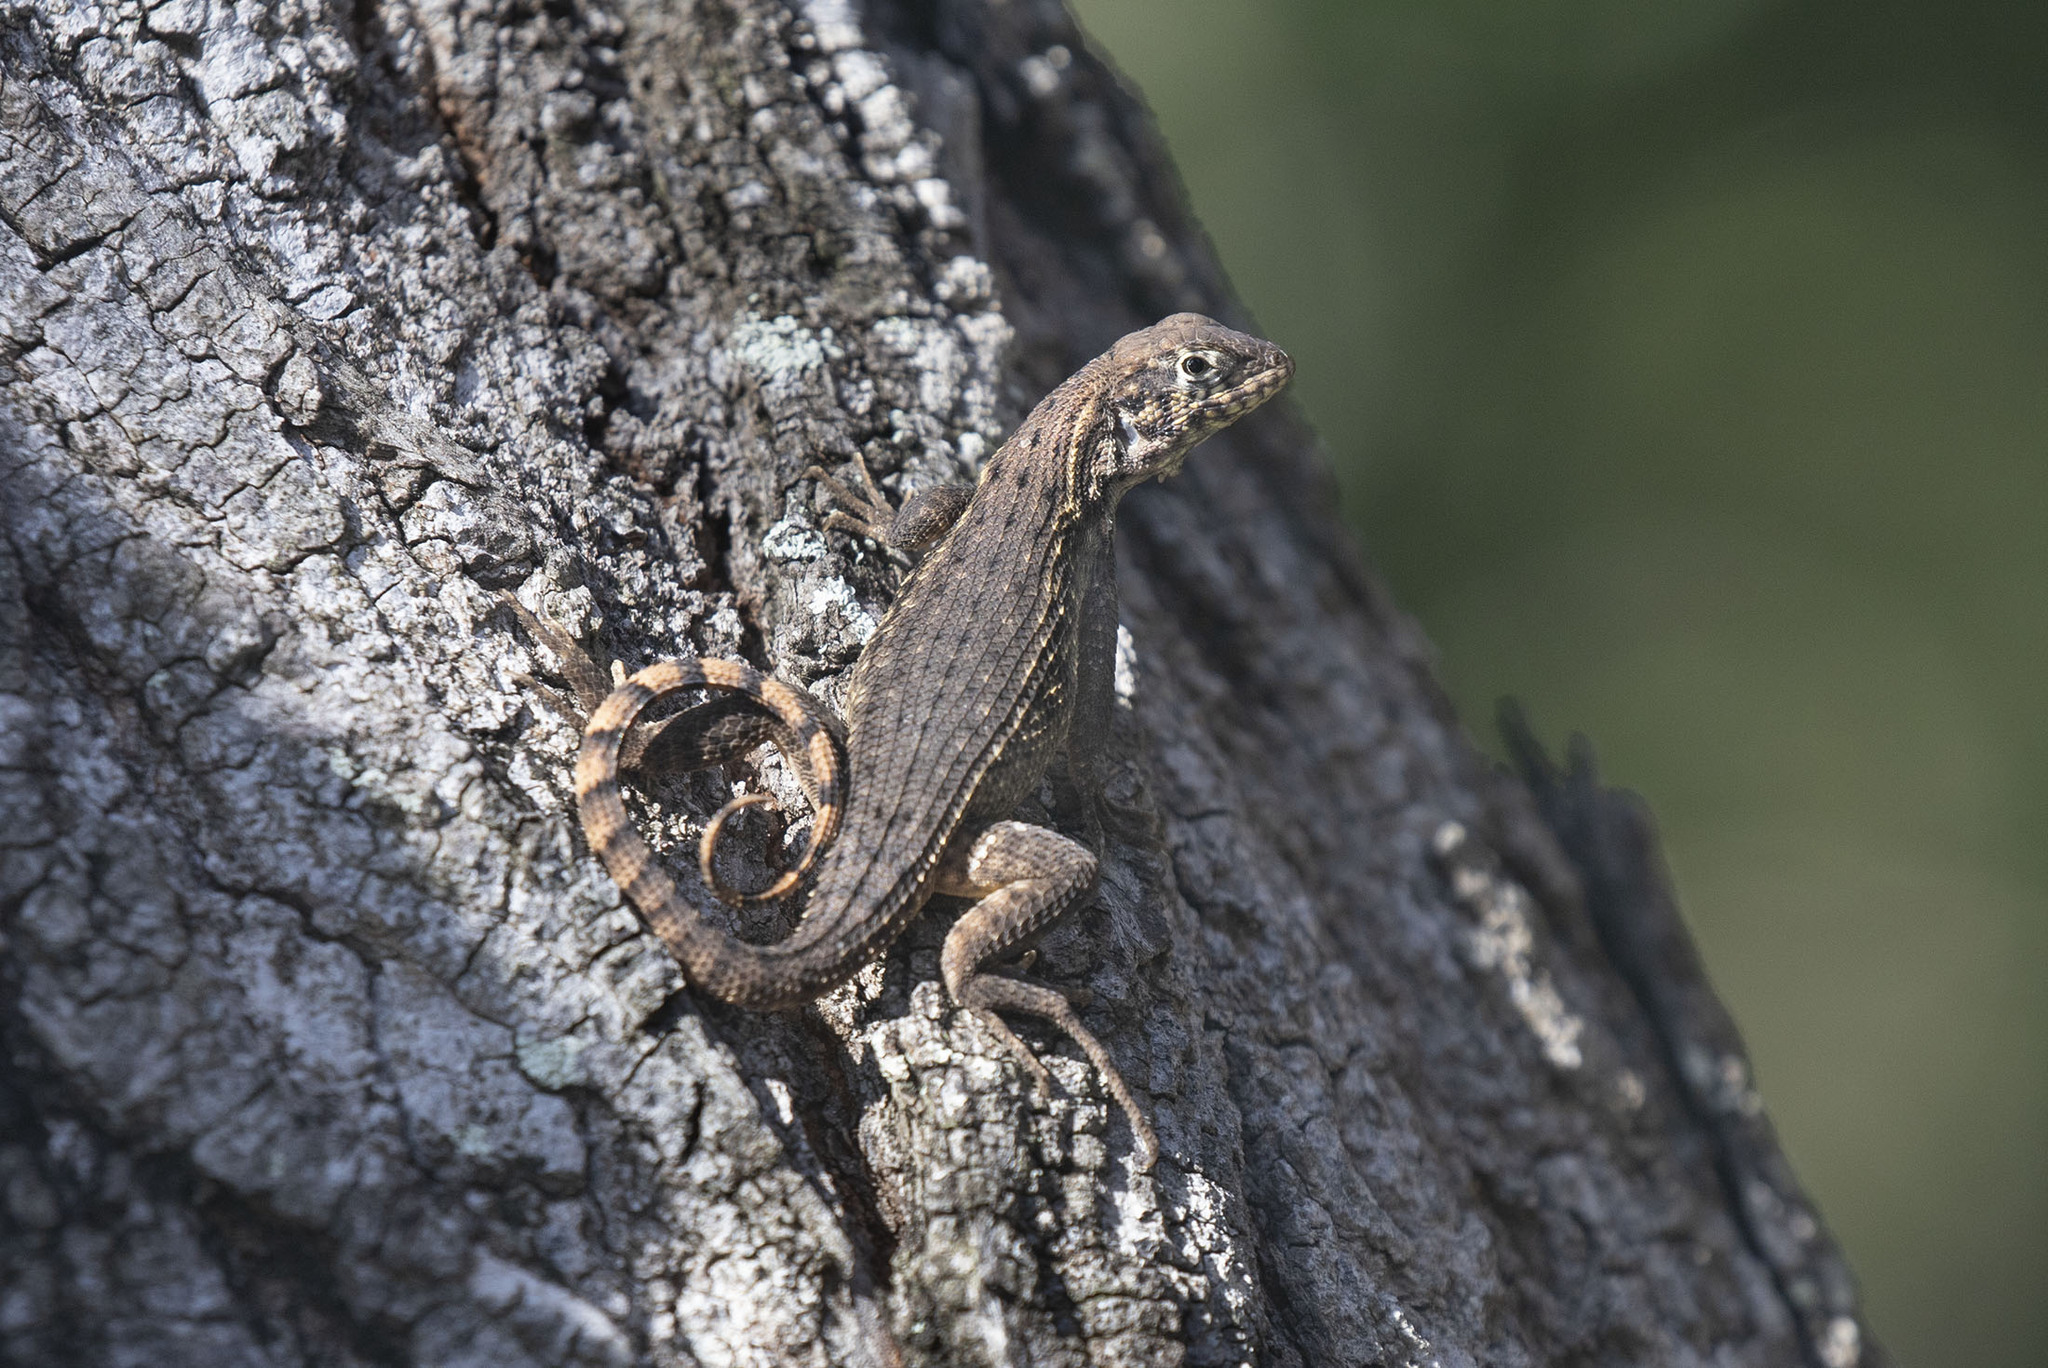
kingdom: Animalia
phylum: Chordata
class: Squamata
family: Leiocephalidae
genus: Leiocephalus
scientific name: Leiocephalus carinatus
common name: Northern curly-tailed lizard
